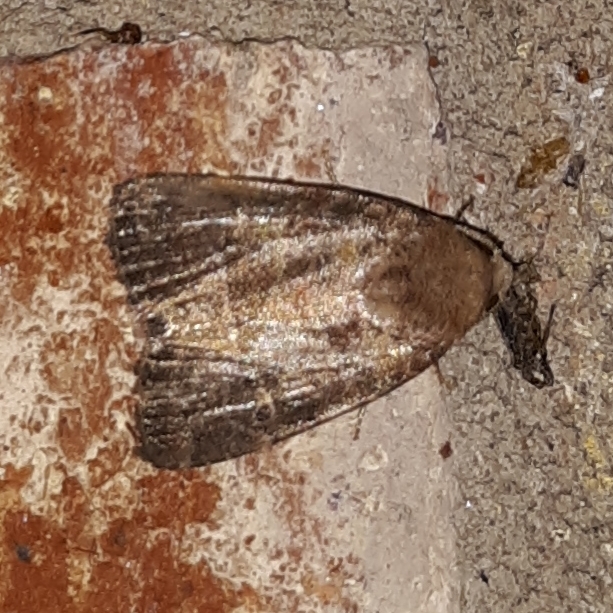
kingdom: Animalia
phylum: Arthropoda
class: Insecta
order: Lepidoptera
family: Noctuidae
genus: Elaphria
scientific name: Elaphria grata
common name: Grateful midget moth
